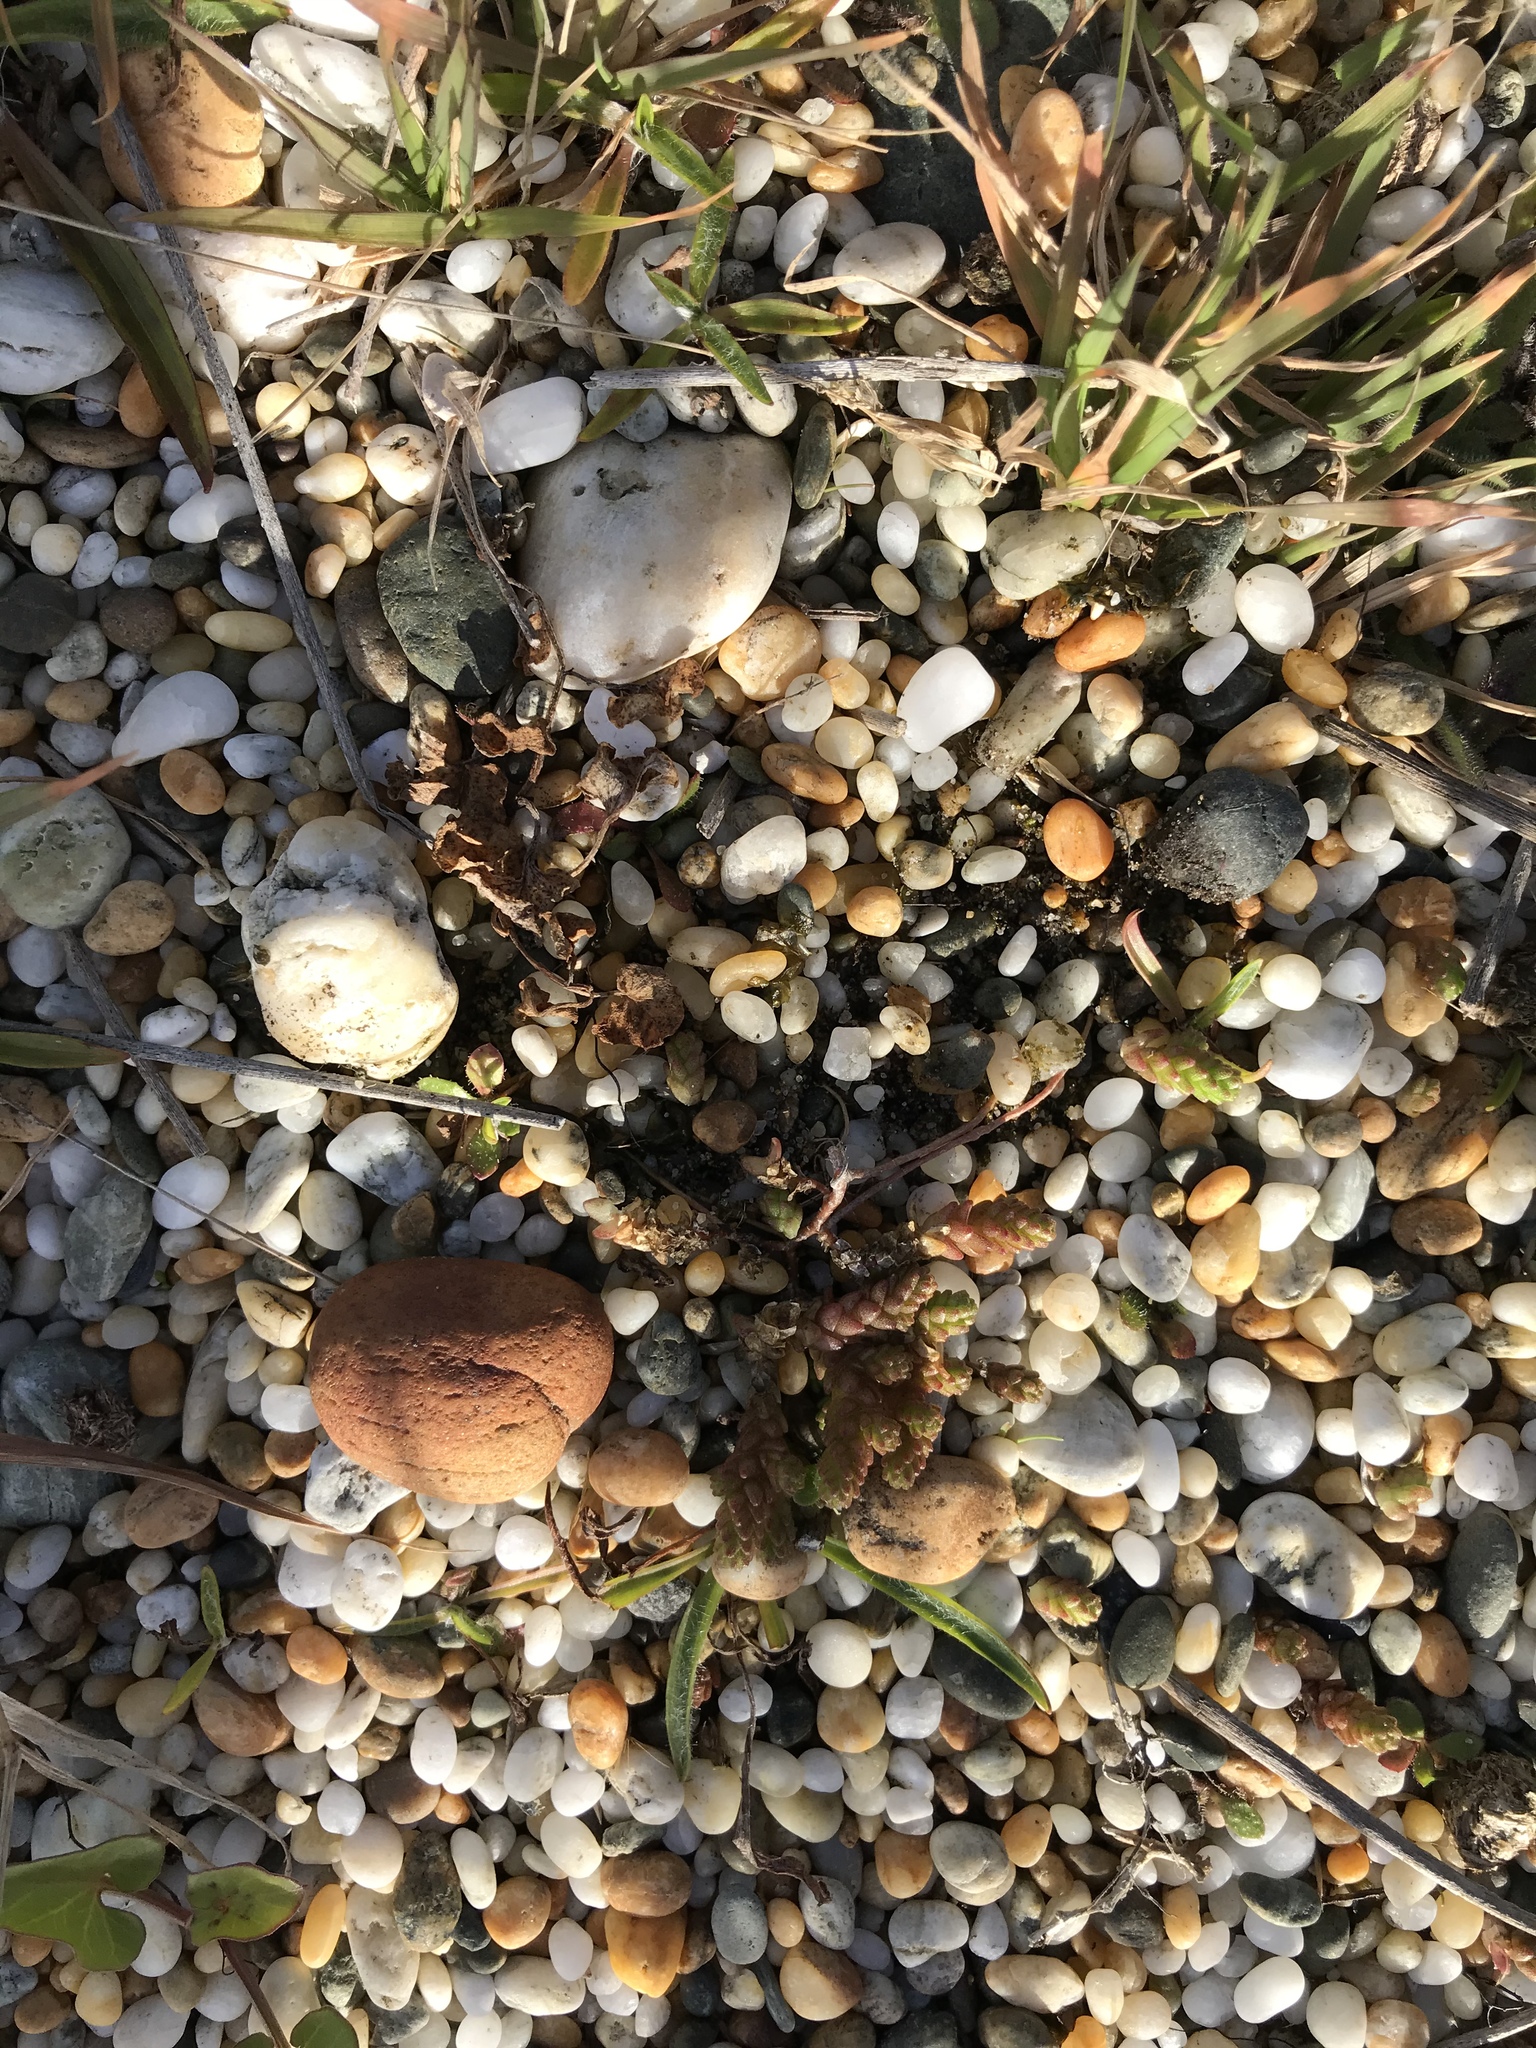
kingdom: Plantae
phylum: Tracheophyta
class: Magnoliopsida
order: Saxifragales
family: Crassulaceae
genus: Sedum
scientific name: Sedum acre
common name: Biting stonecrop
